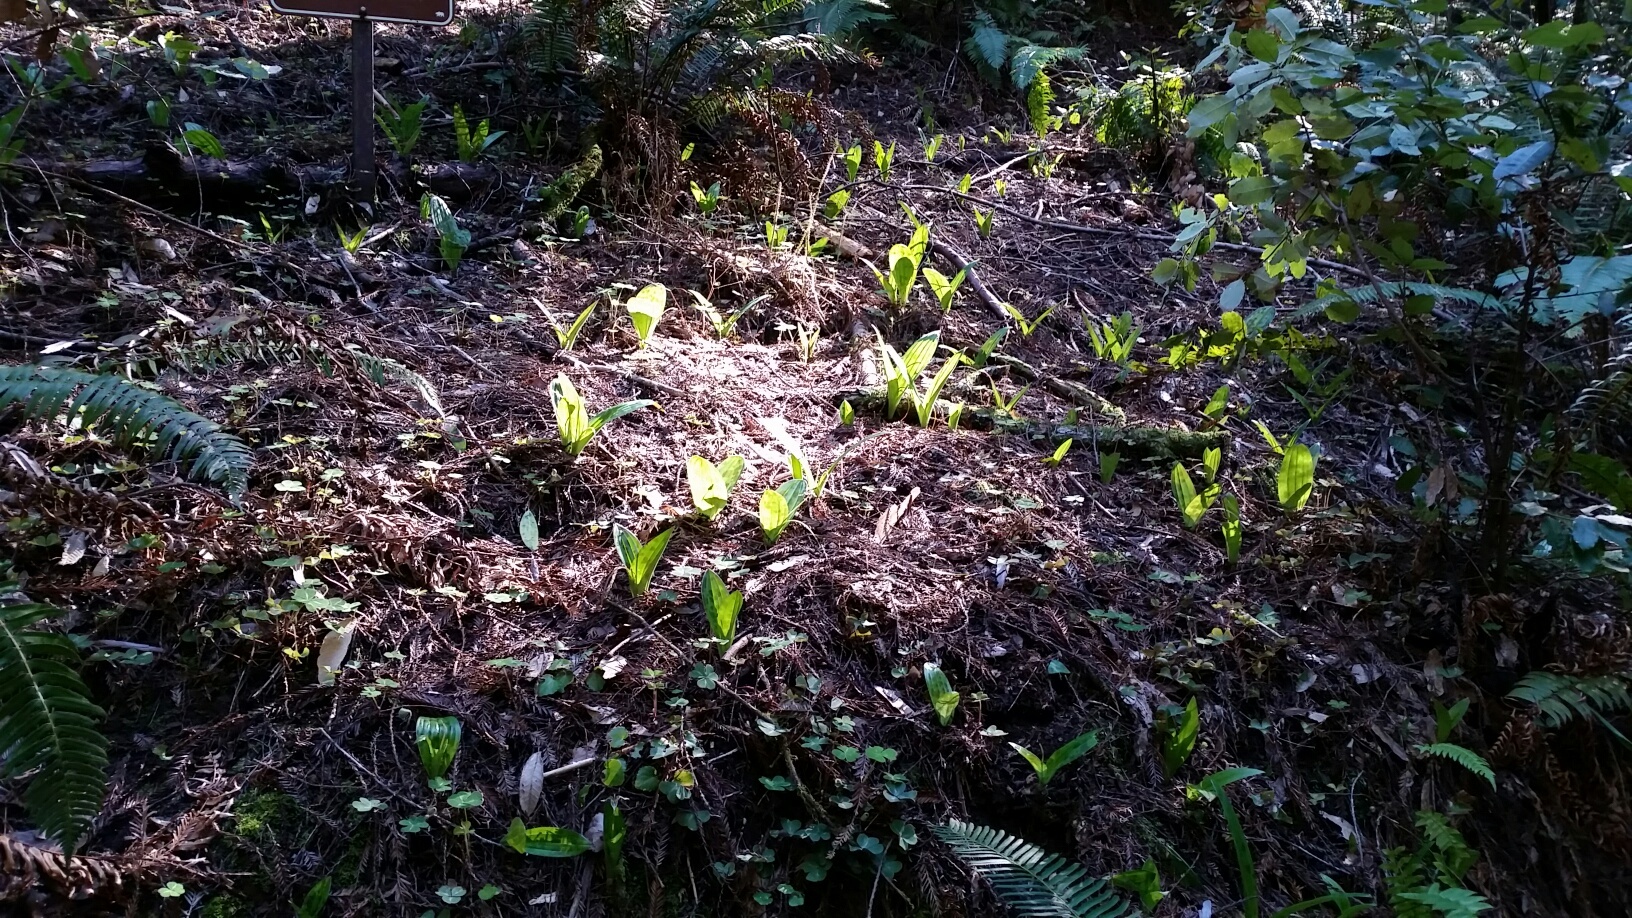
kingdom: Plantae
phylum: Tracheophyta
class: Liliopsida
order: Liliales
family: Liliaceae
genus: Scoliopus
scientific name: Scoliopus bigelovii
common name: Foetid adder's-tongue
